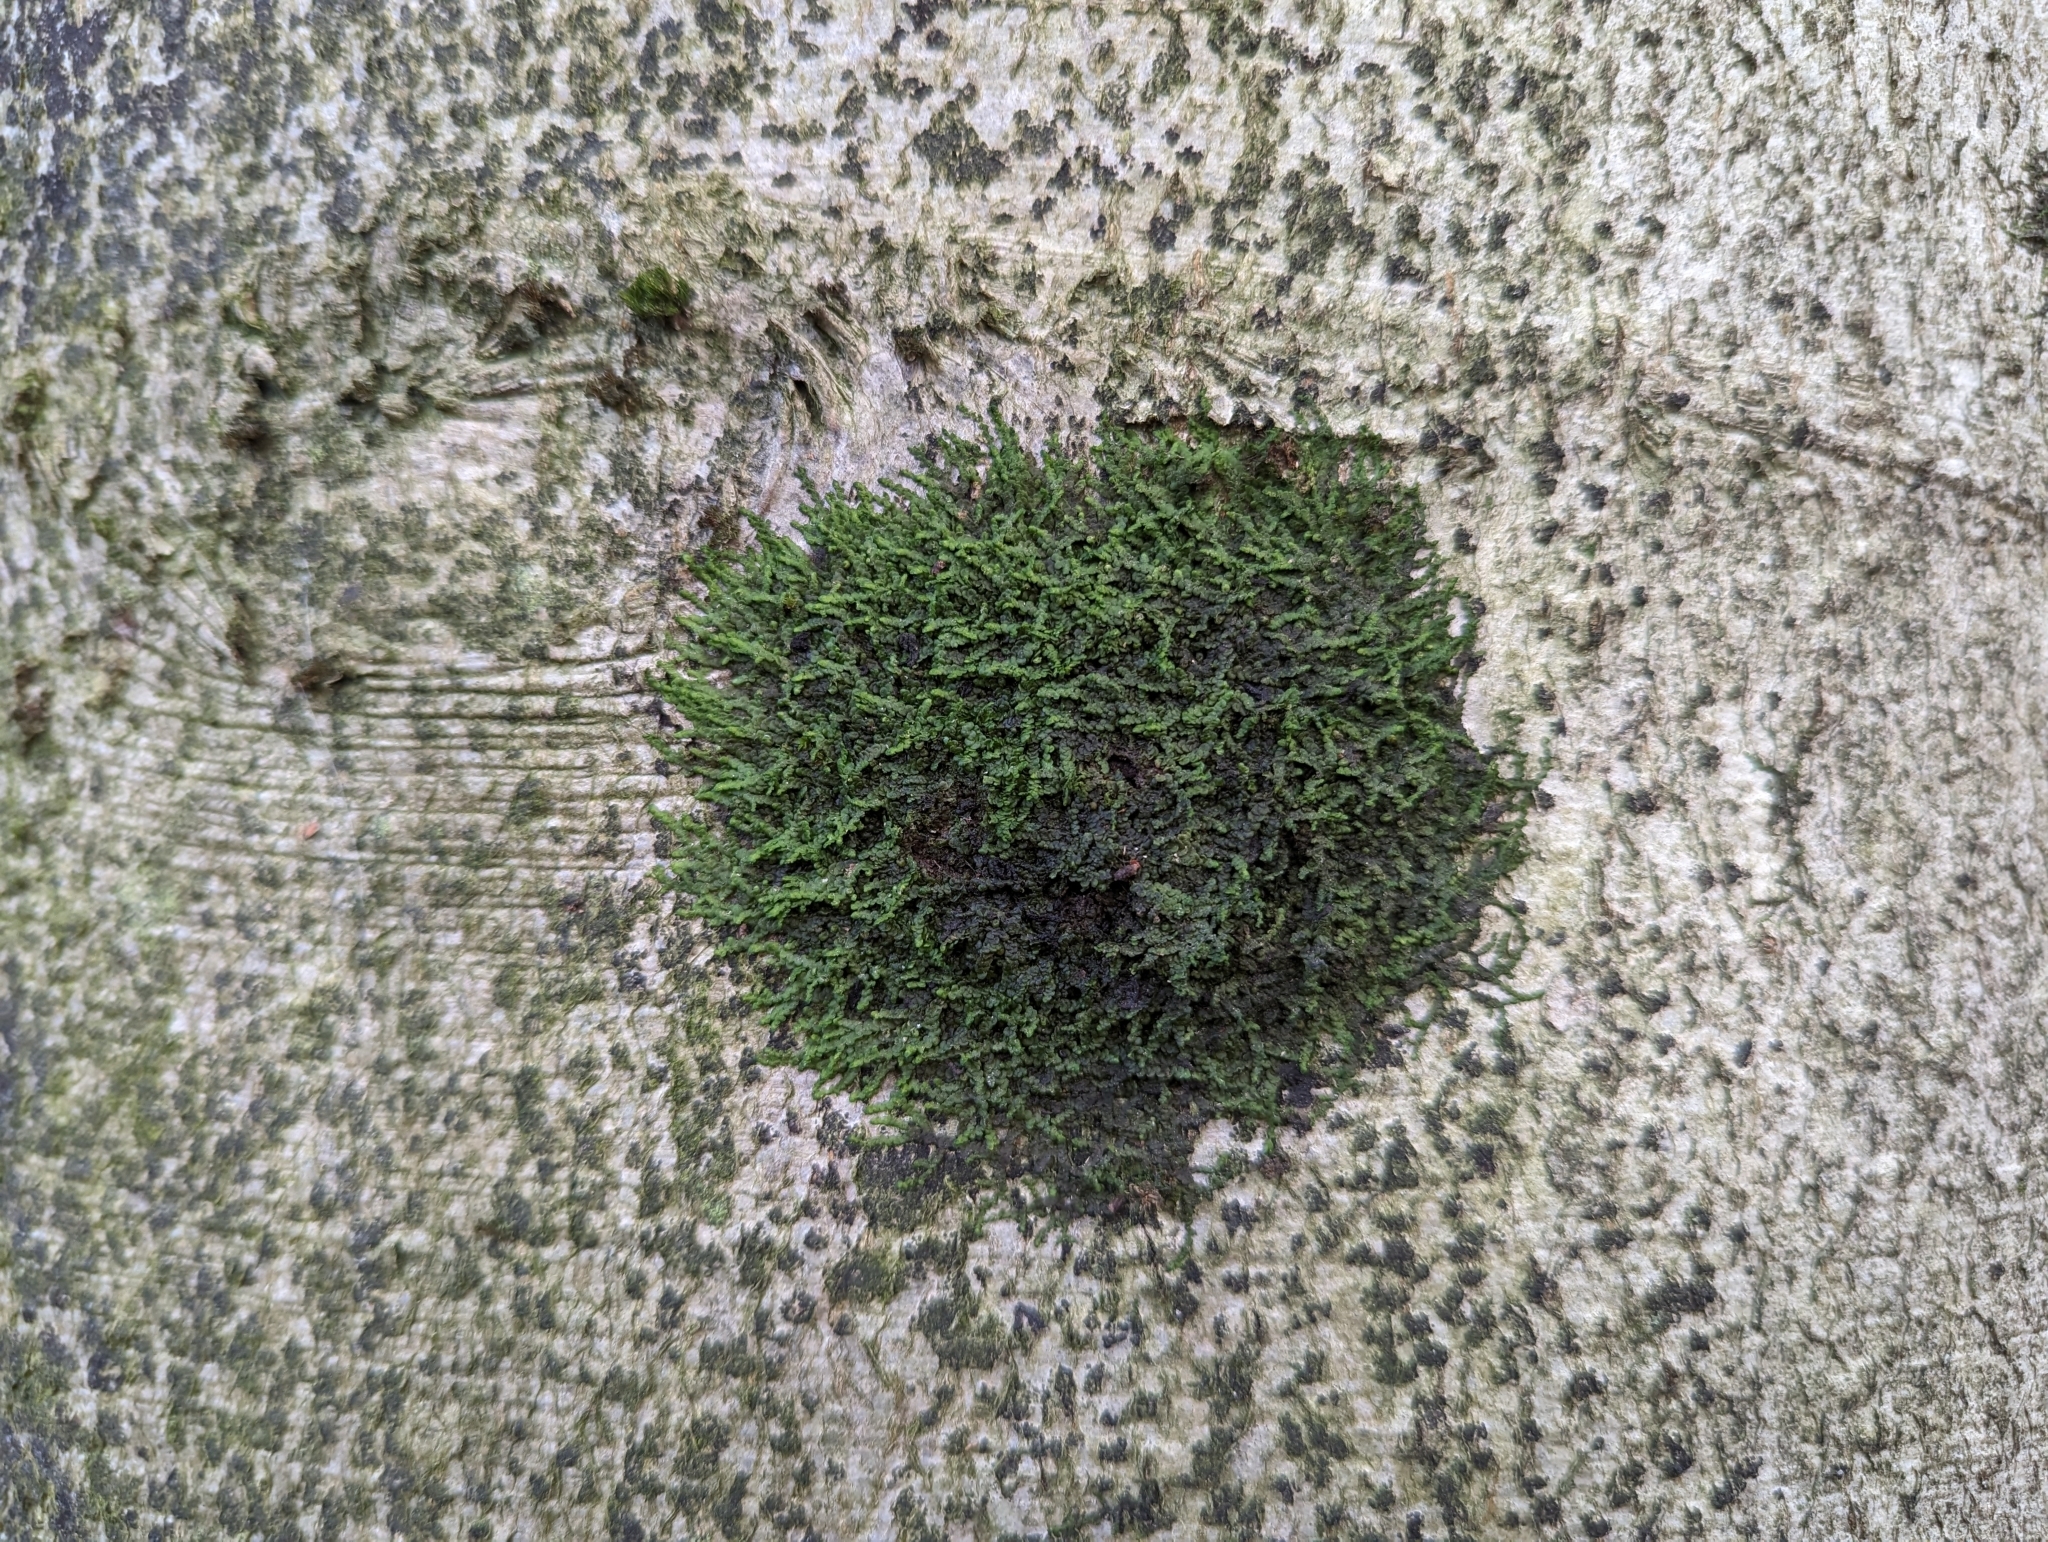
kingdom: Plantae
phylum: Marchantiophyta
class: Jungermanniopsida
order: Porellales
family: Frullaniaceae
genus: Frullania
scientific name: Frullania dilatata
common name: Dilated scalewort
